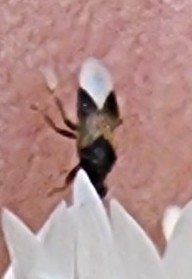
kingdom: Animalia
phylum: Arthropoda
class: Insecta
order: Hemiptera
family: Anthocoridae
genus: Orius
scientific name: Orius insidiosus
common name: Insidious flower bug
